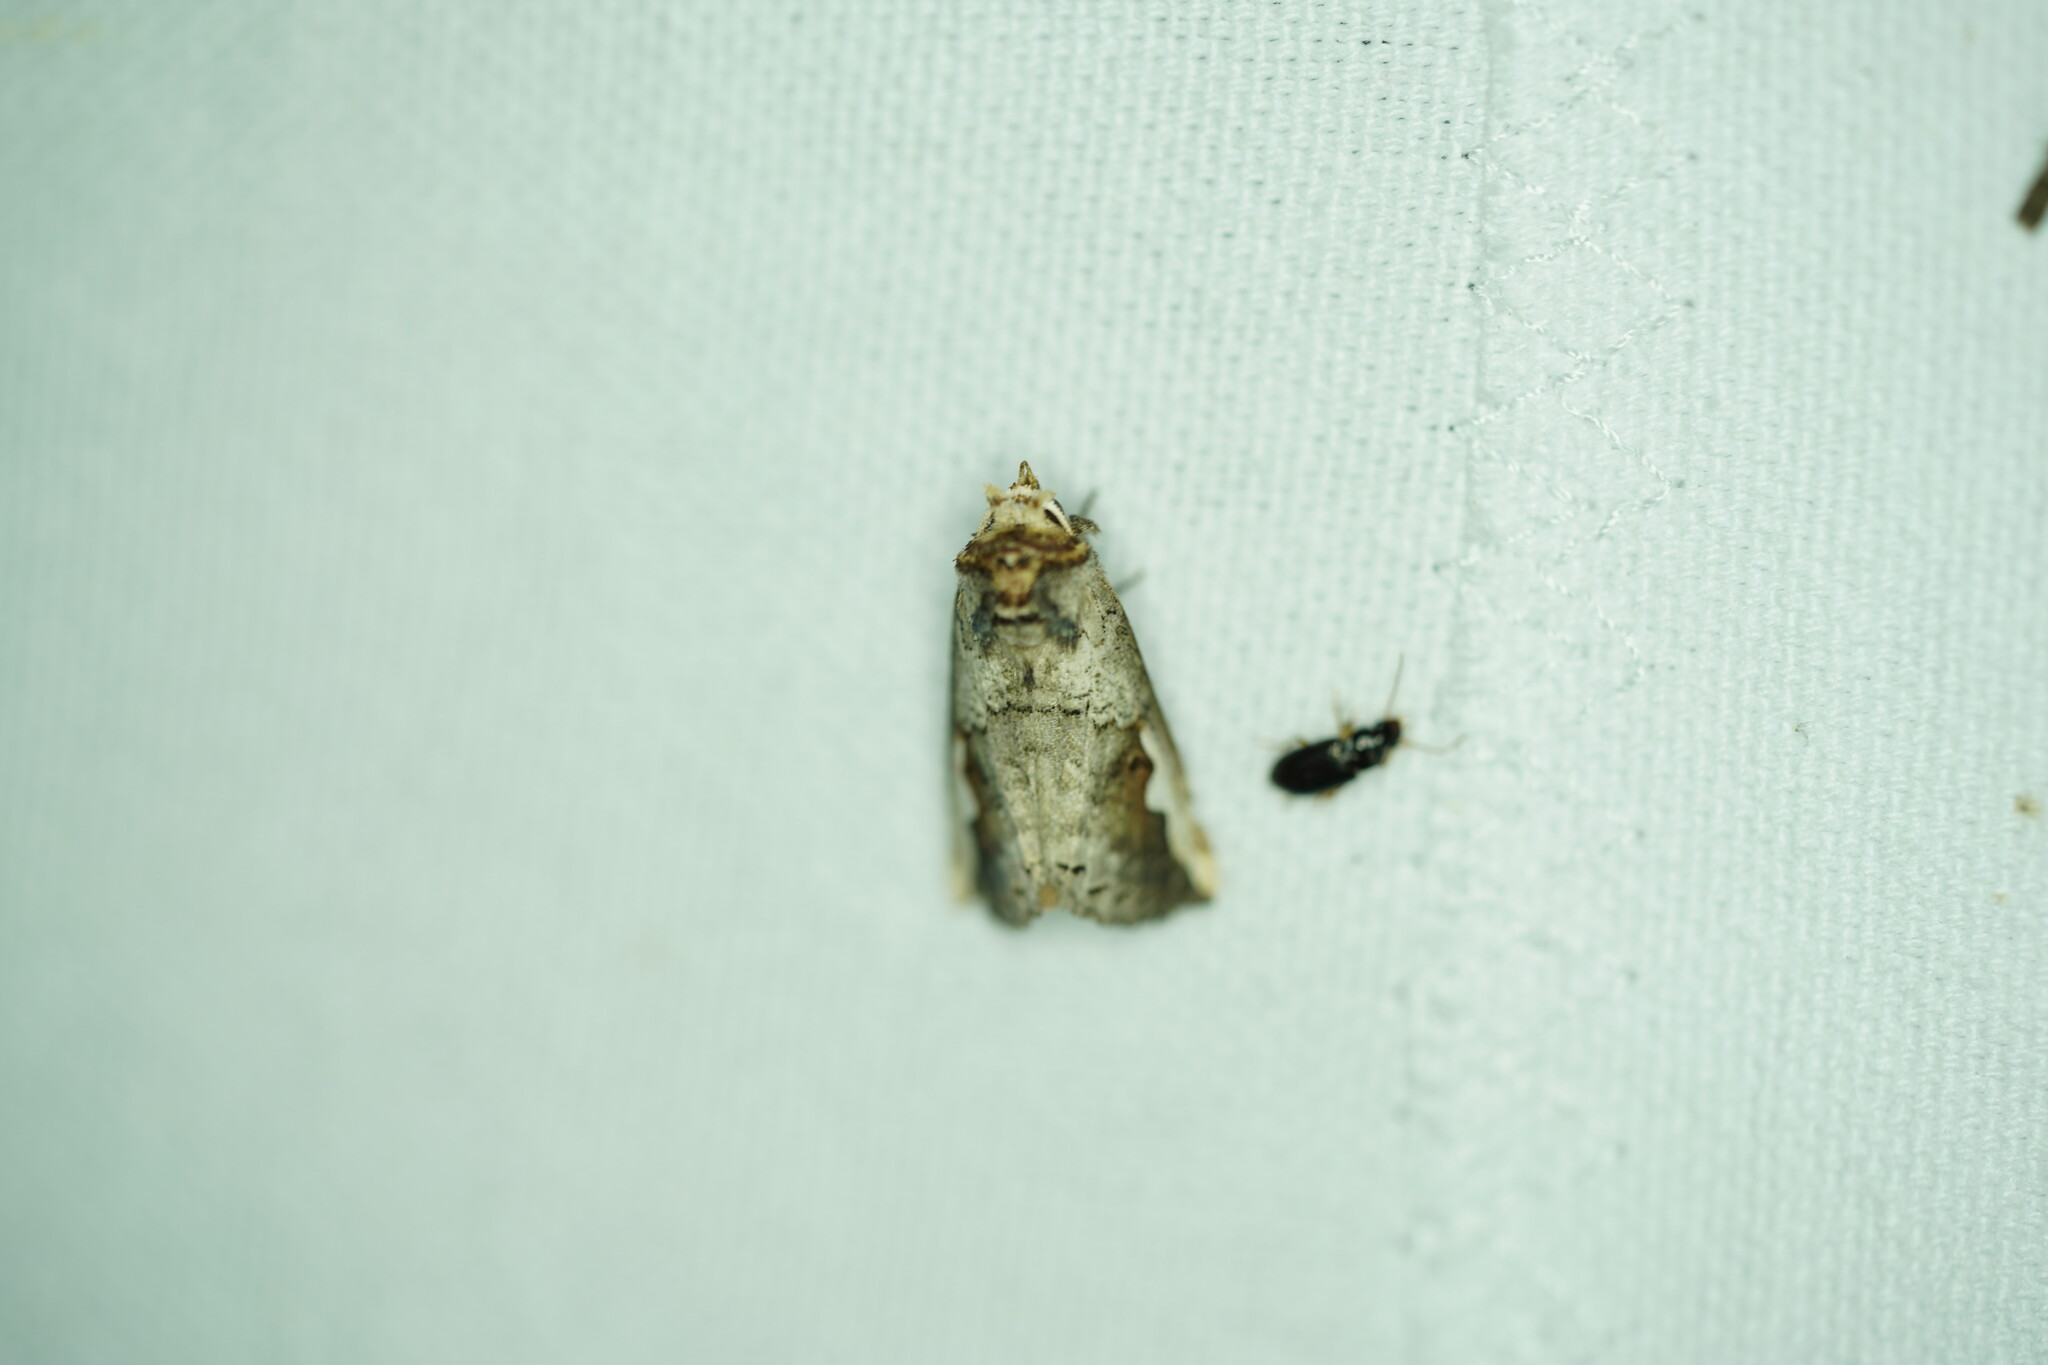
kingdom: Animalia
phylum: Arthropoda
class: Insecta
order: Lepidoptera
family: Notodontidae
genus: Symmerista
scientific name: Symmerista albifrons
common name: White-headed prominent
